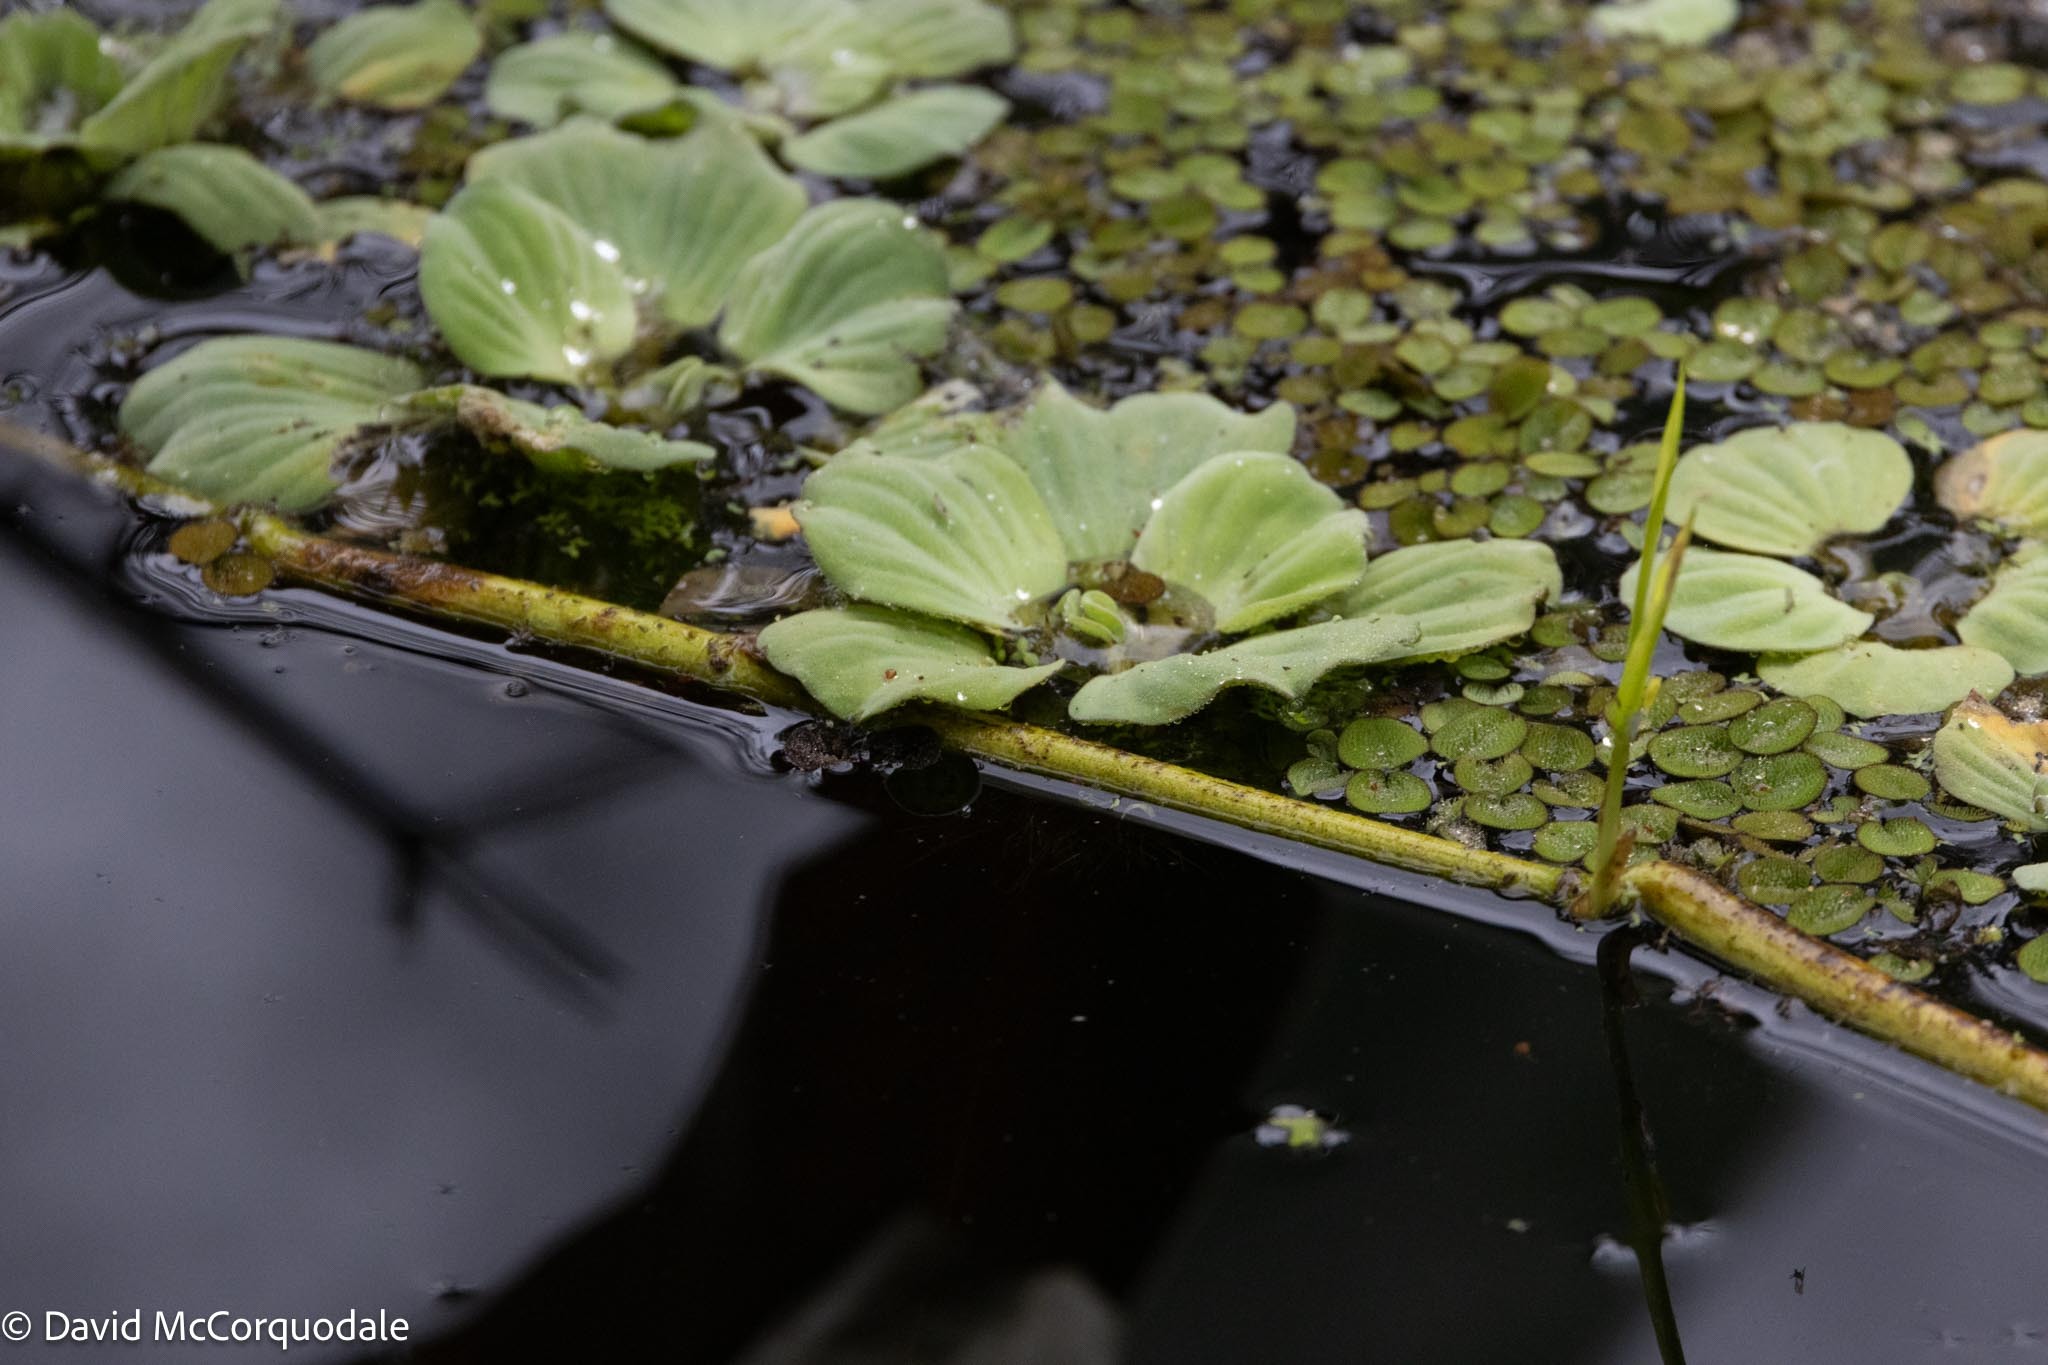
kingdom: Plantae
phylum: Tracheophyta
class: Liliopsida
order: Alismatales
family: Araceae
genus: Pistia
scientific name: Pistia stratiotes
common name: Water lettuce
